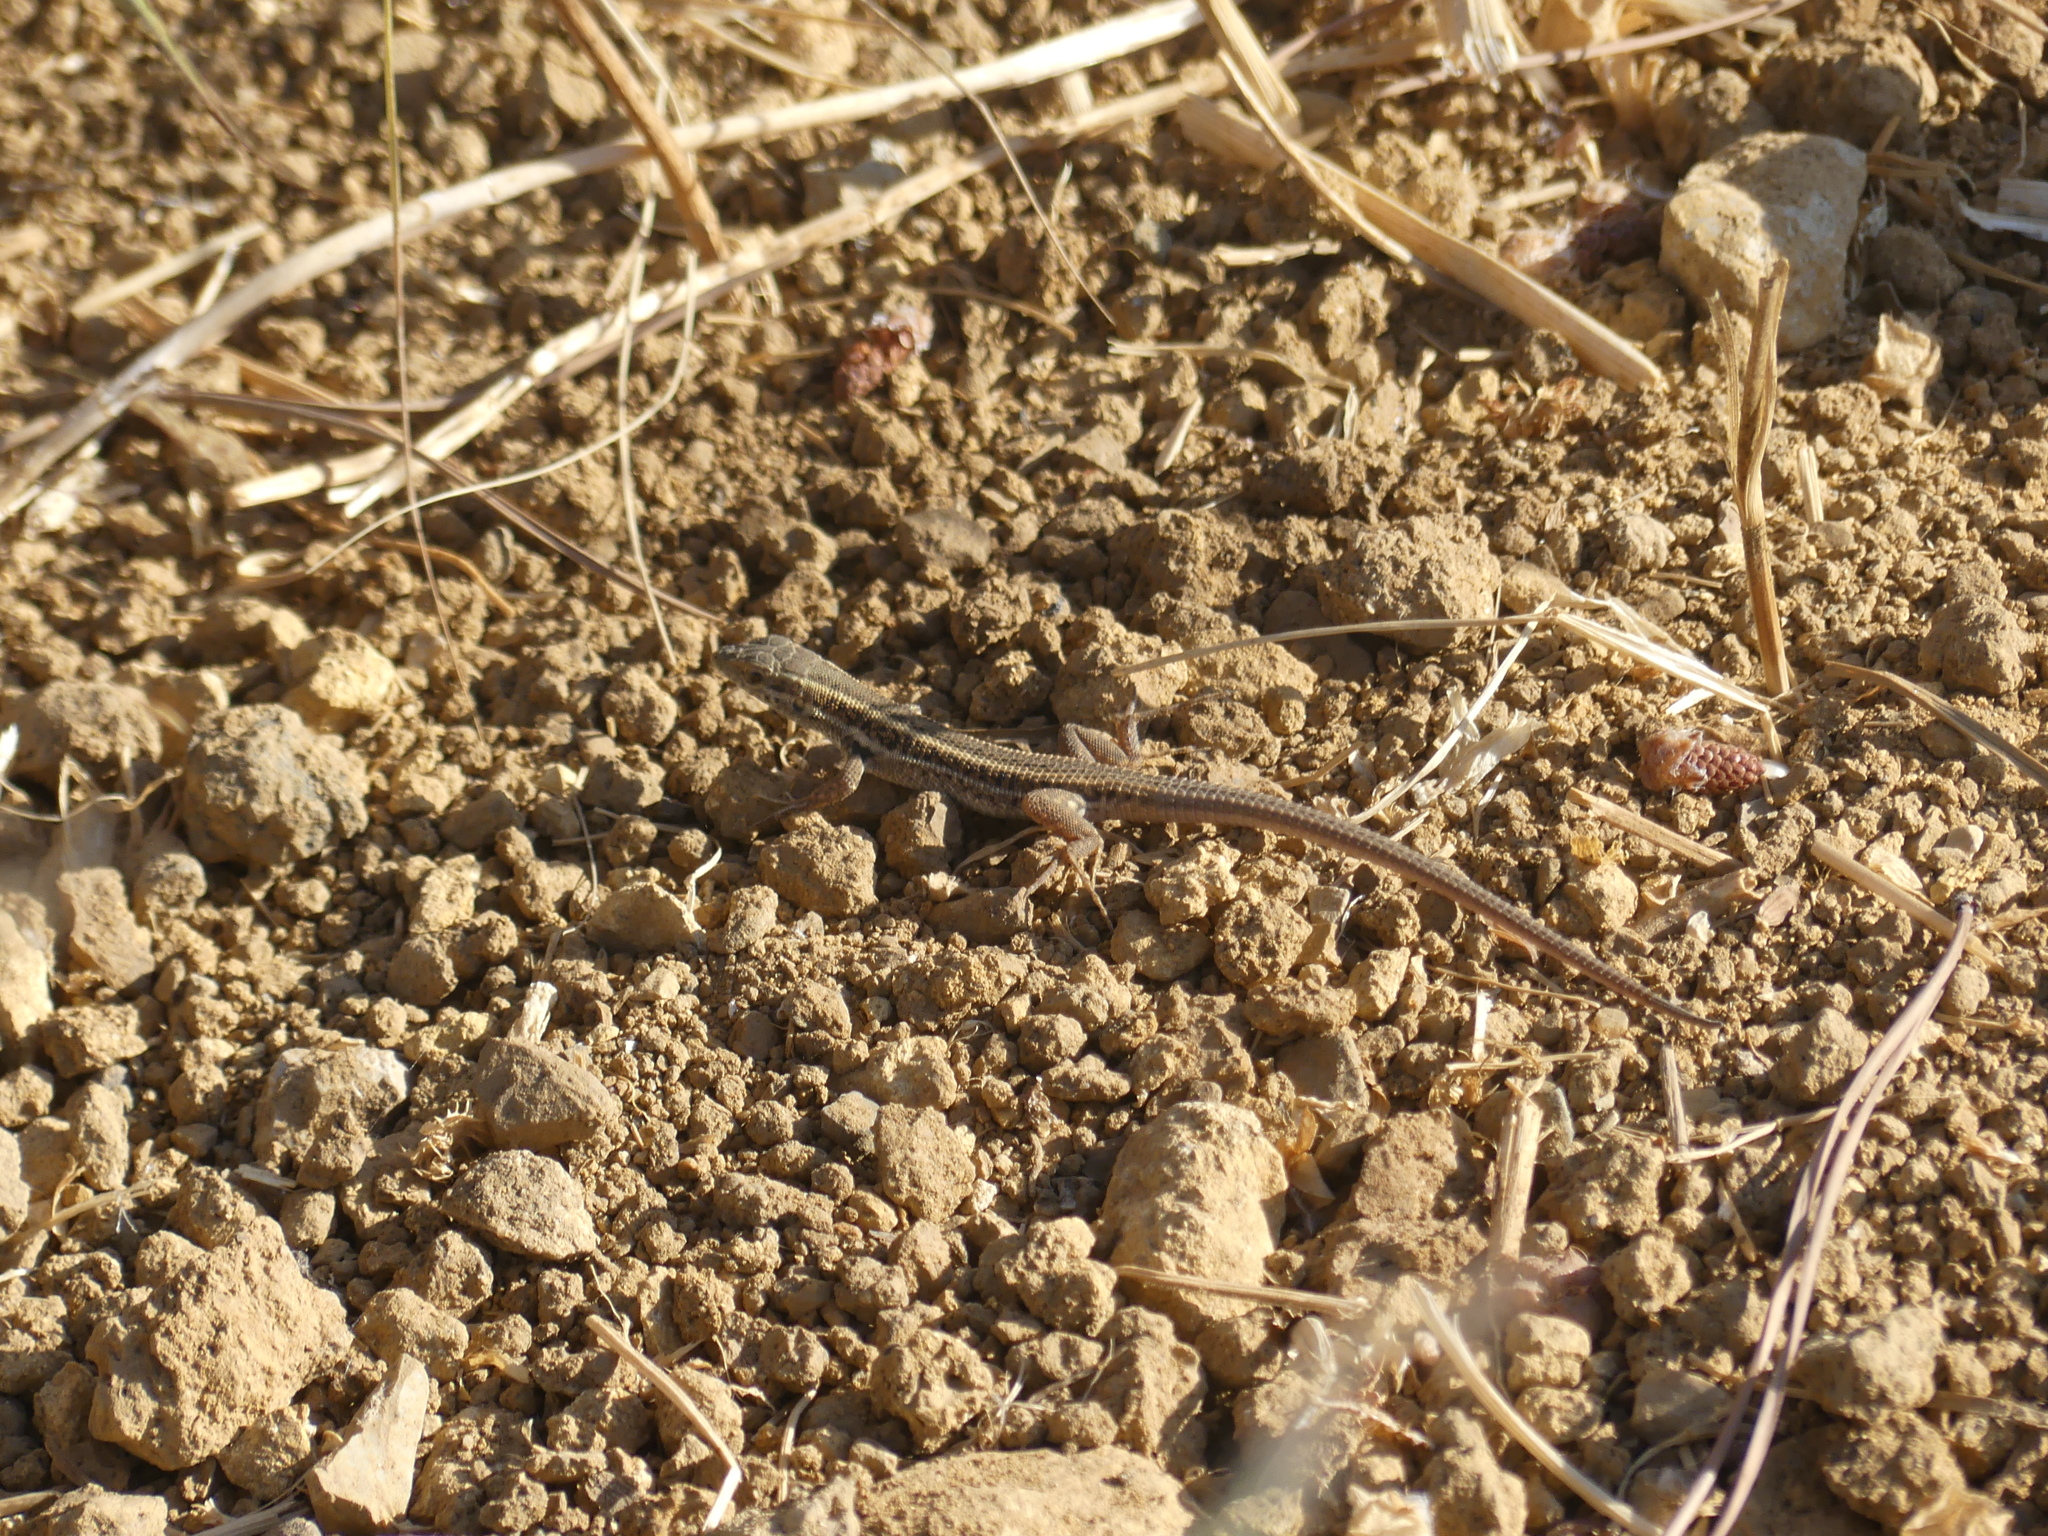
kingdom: Animalia
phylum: Chordata
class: Squamata
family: Lacertidae
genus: Ophisops
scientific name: Ophisops elegans
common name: Snake-eyed lizard
